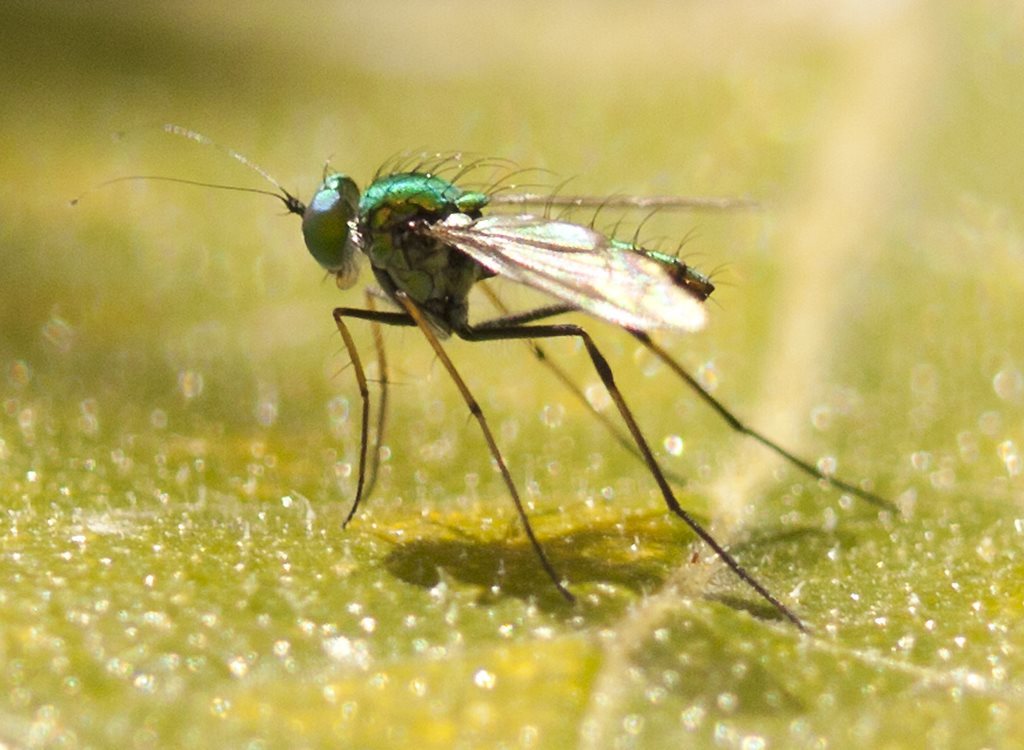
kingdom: Animalia
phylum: Arthropoda
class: Insecta
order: Diptera
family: Dolichopodidae
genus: Chrysosoma
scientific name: Chrysosoma pseudocallosum
